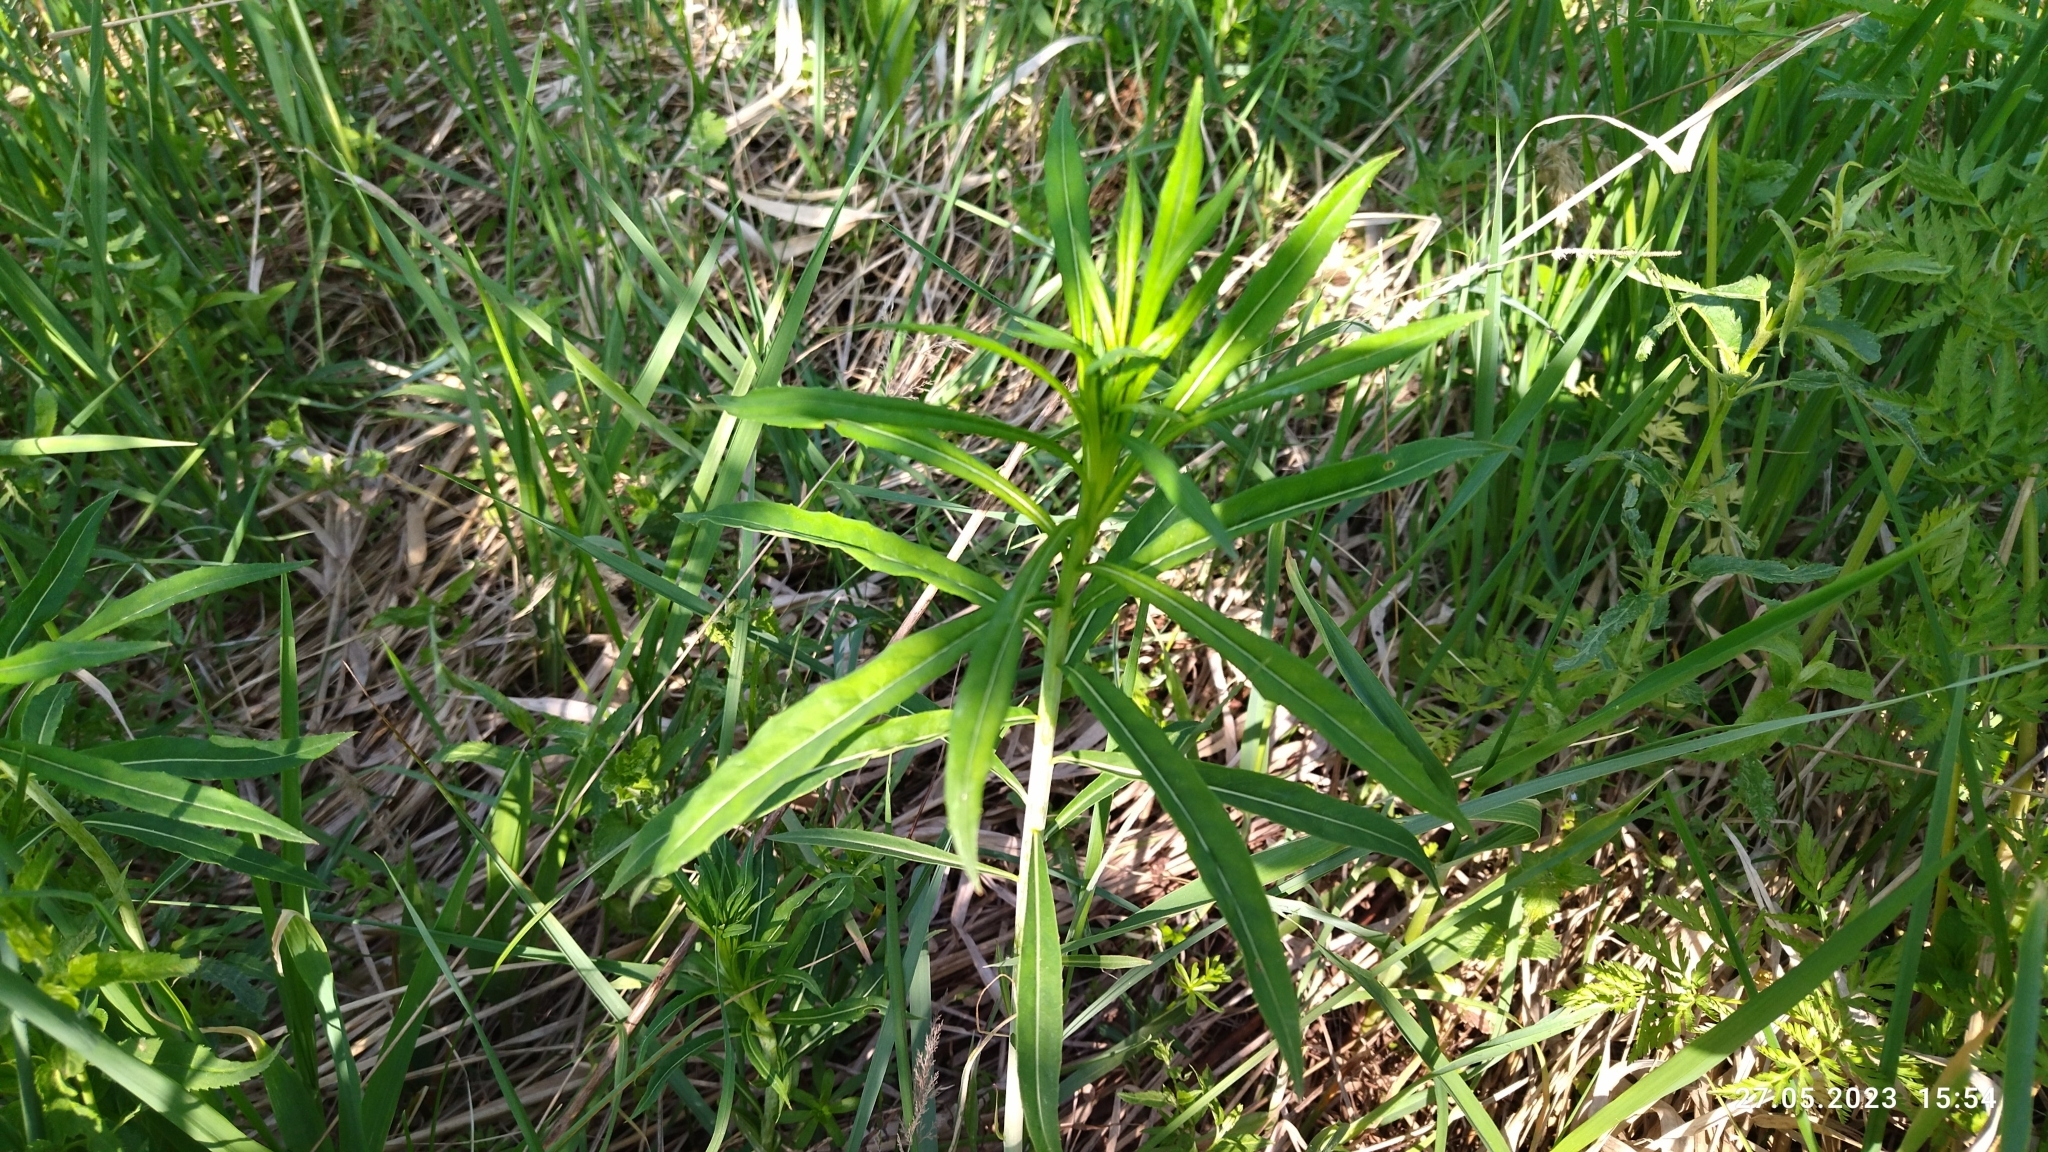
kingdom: Plantae
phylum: Tracheophyta
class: Magnoliopsida
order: Myrtales
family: Onagraceae
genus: Chamaenerion
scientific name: Chamaenerion angustifolium
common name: Fireweed
